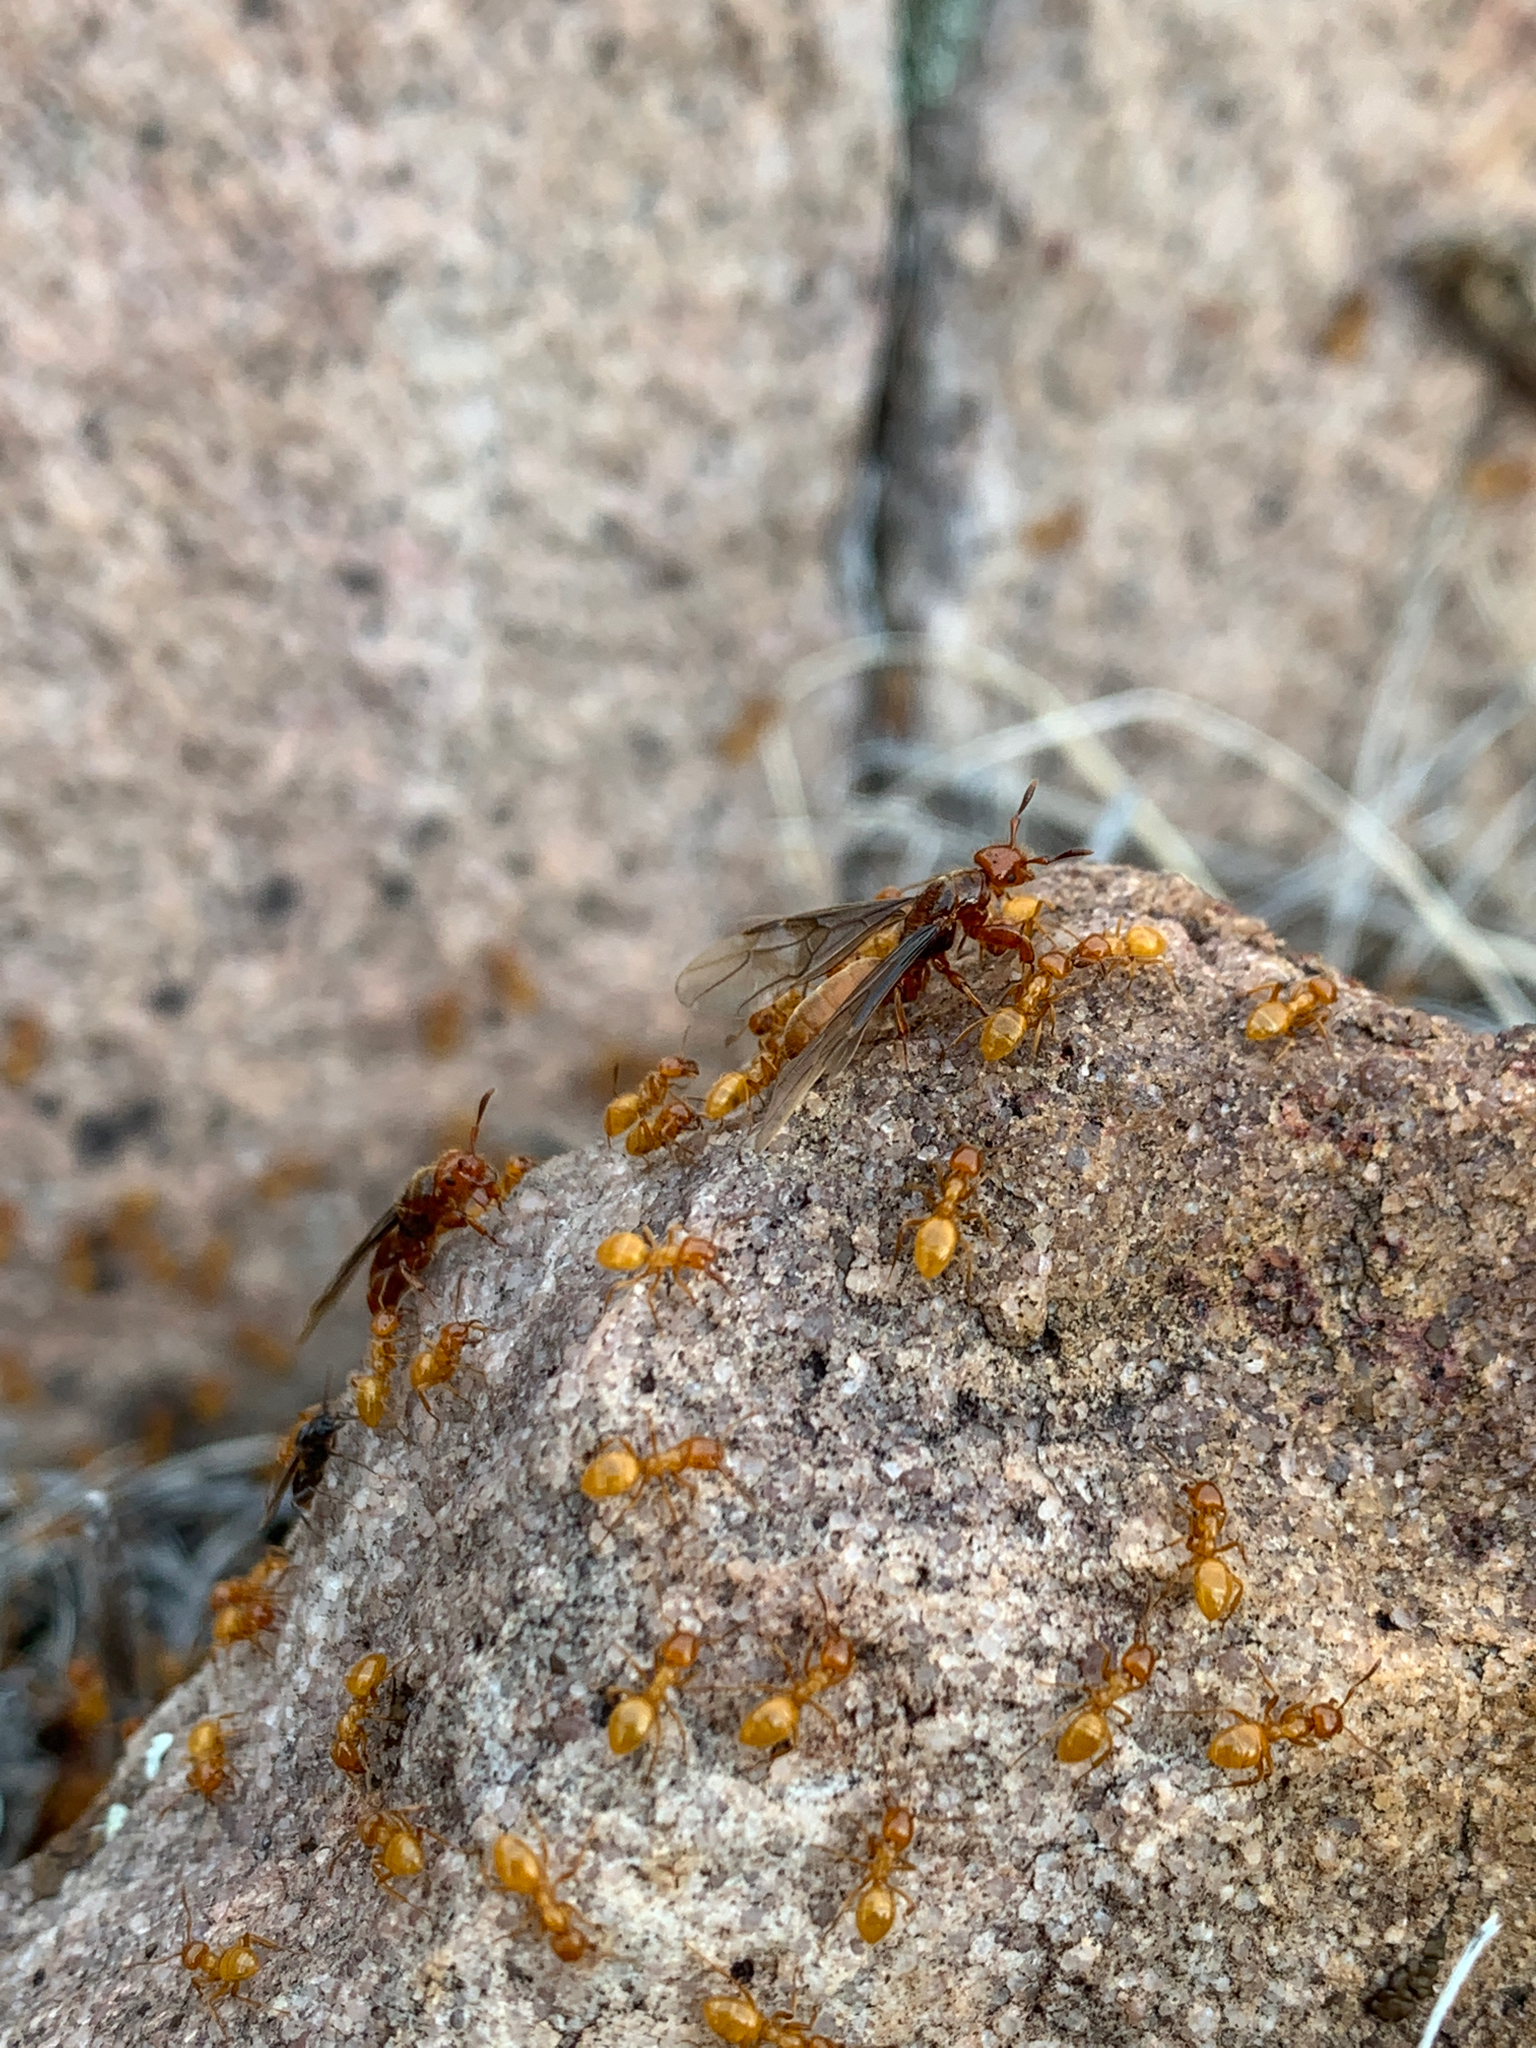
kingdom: Animalia
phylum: Arthropoda
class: Insecta
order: Hymenoptera
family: Formicidae
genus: Acanthomyops
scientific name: Acanthomyops latipes
